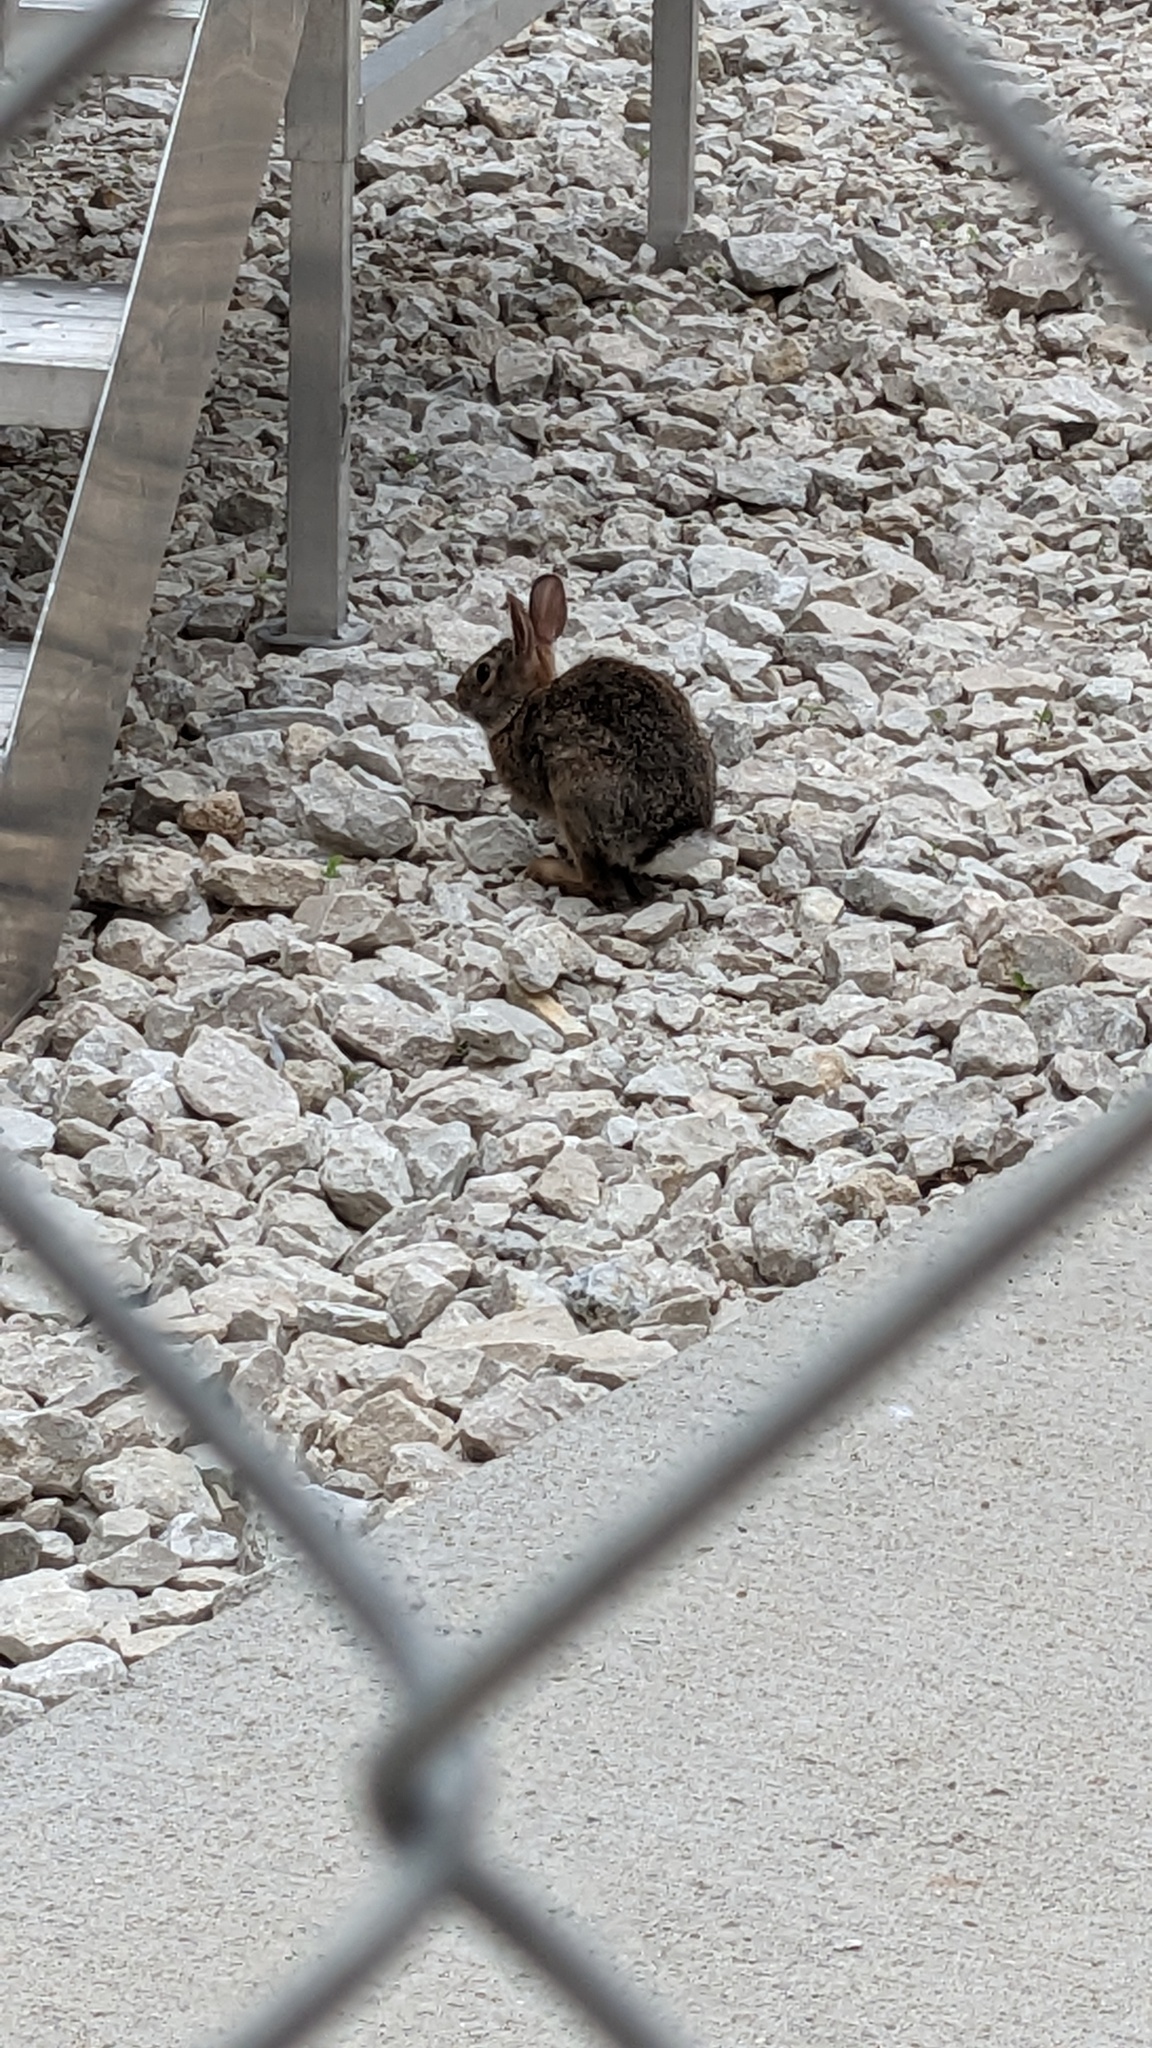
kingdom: Animalia
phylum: Chordata
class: Mammalia
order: Lagomorpha
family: Leporidae
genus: Sylvilagus
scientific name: Sylvilagus floridanus
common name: Eastern cottontail
